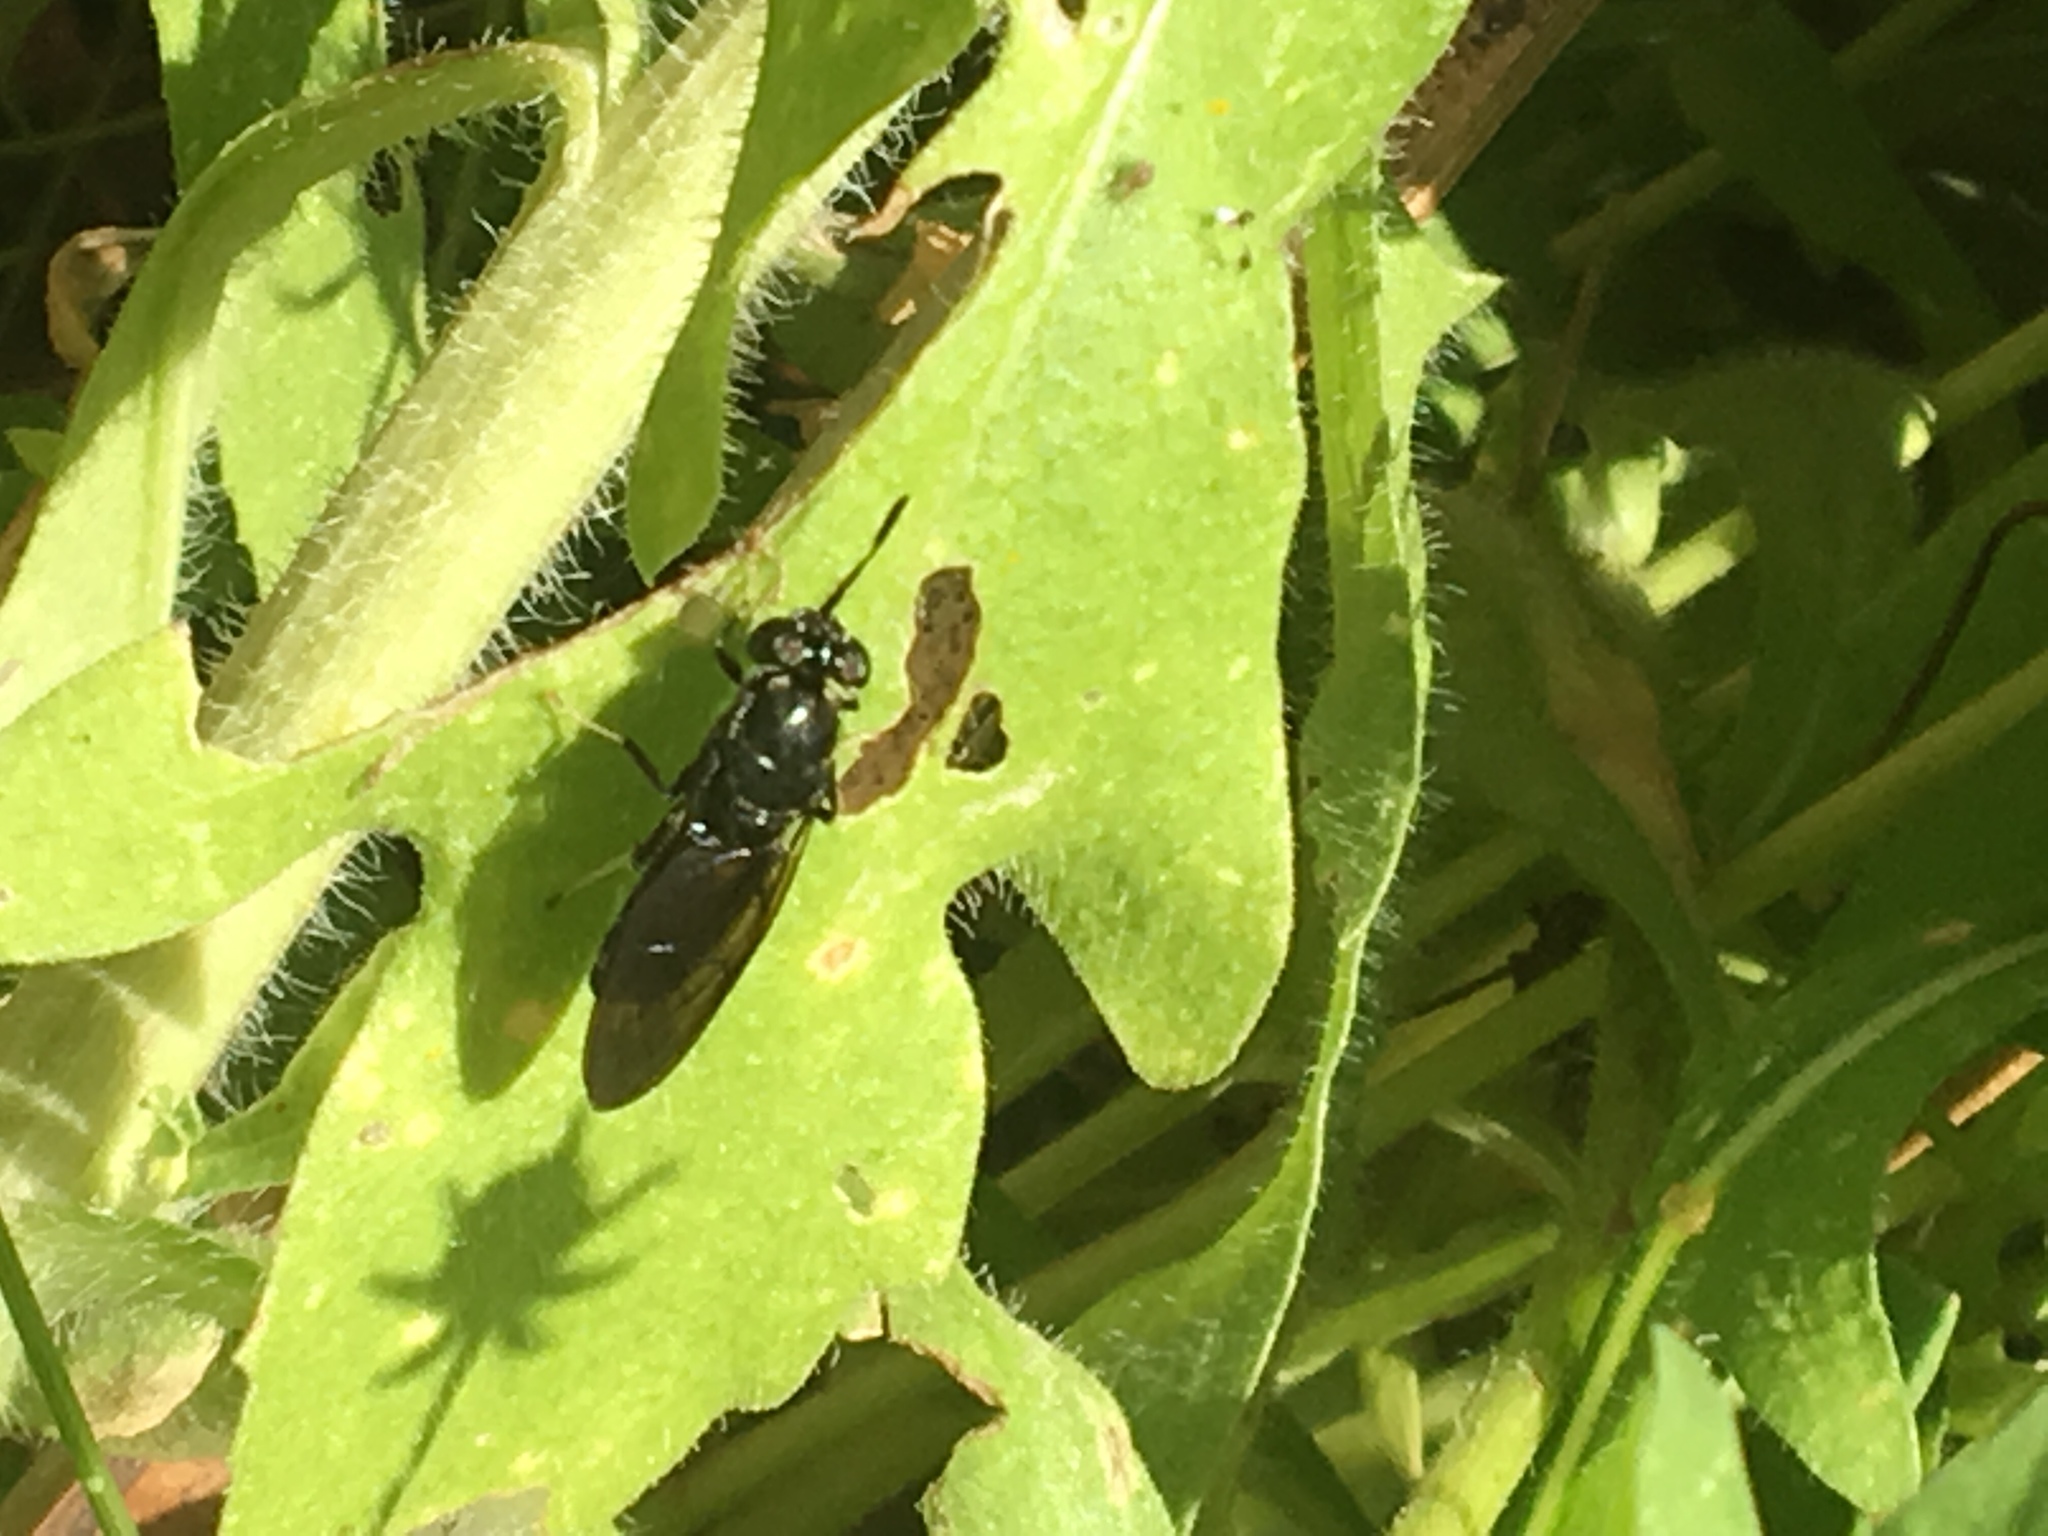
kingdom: Animalia
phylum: Arthropoda
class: Insecta
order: Diptera
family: Stratiomyidae
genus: Hermetia
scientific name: Hermetia illucens
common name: Black soldier fly
